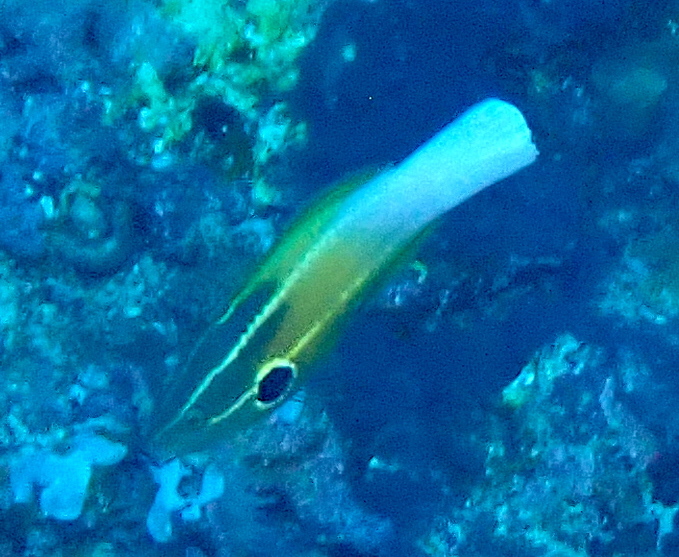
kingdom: Animalia
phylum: Chordata
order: Perciformes
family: Labridae
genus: Labropsis
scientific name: Labropsis alleni
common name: Allen's tubelip
